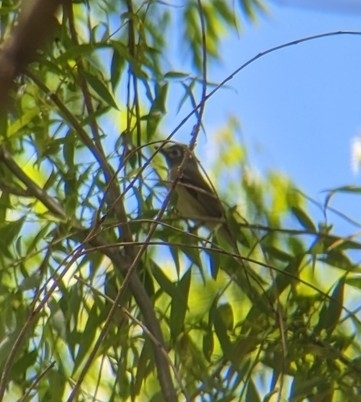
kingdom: Animalia
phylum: Chordata
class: Aves
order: Passeriformes
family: Vireonidae
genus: Vireo
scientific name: Vireo solitarius
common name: Blue-headed vireo
